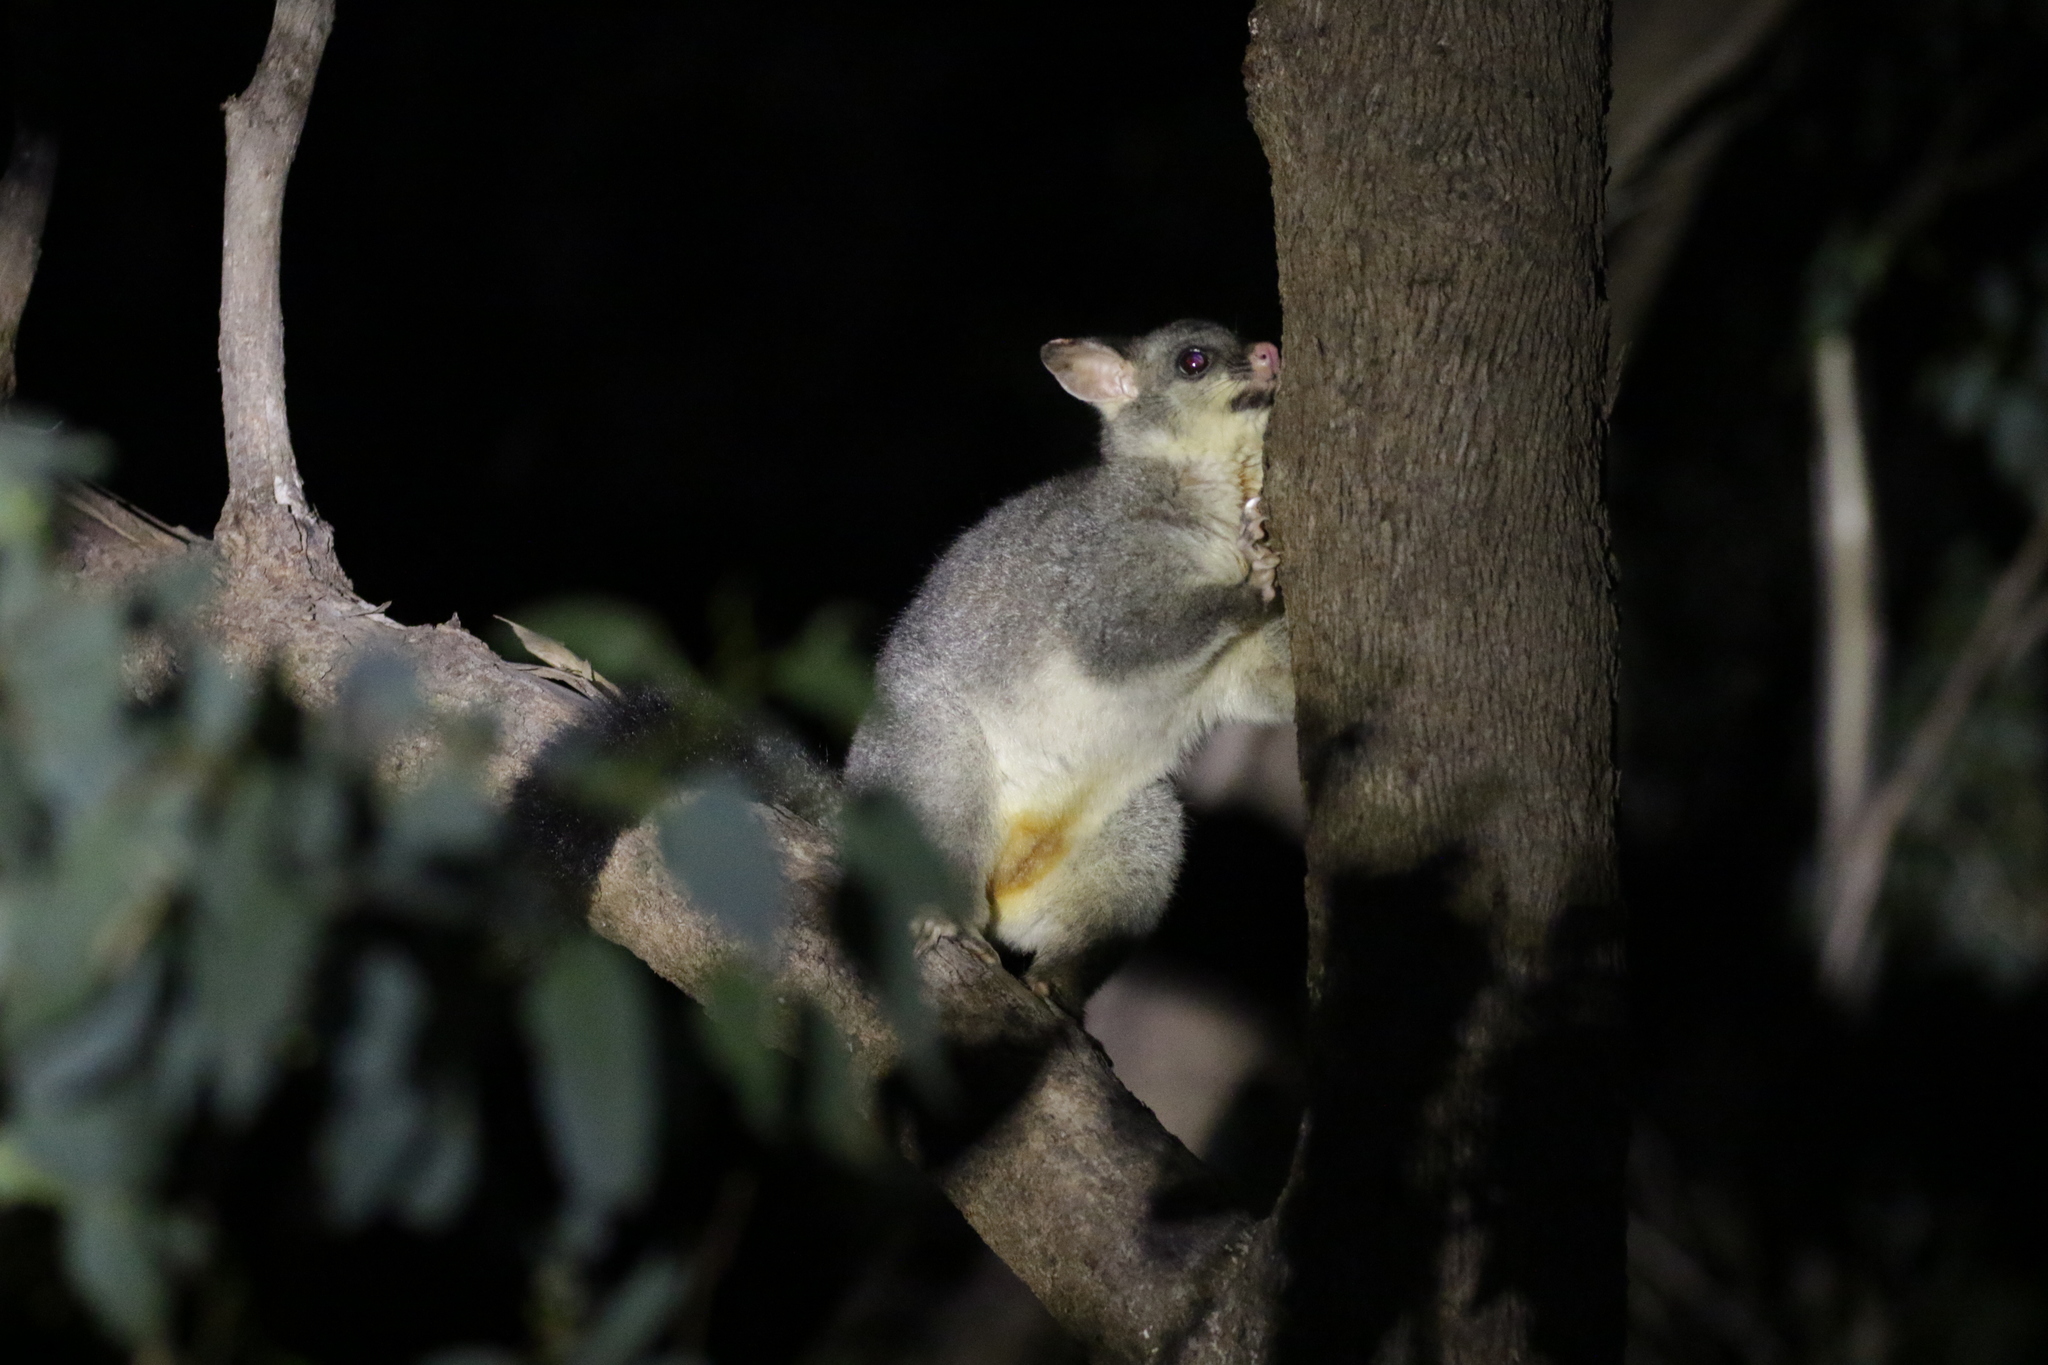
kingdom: Animalia
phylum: Chordata
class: Mammalia
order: Diprotodontia
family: Phalangeridae
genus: Trichosurus
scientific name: Trichosurus vulpecula
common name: Common brushtail
